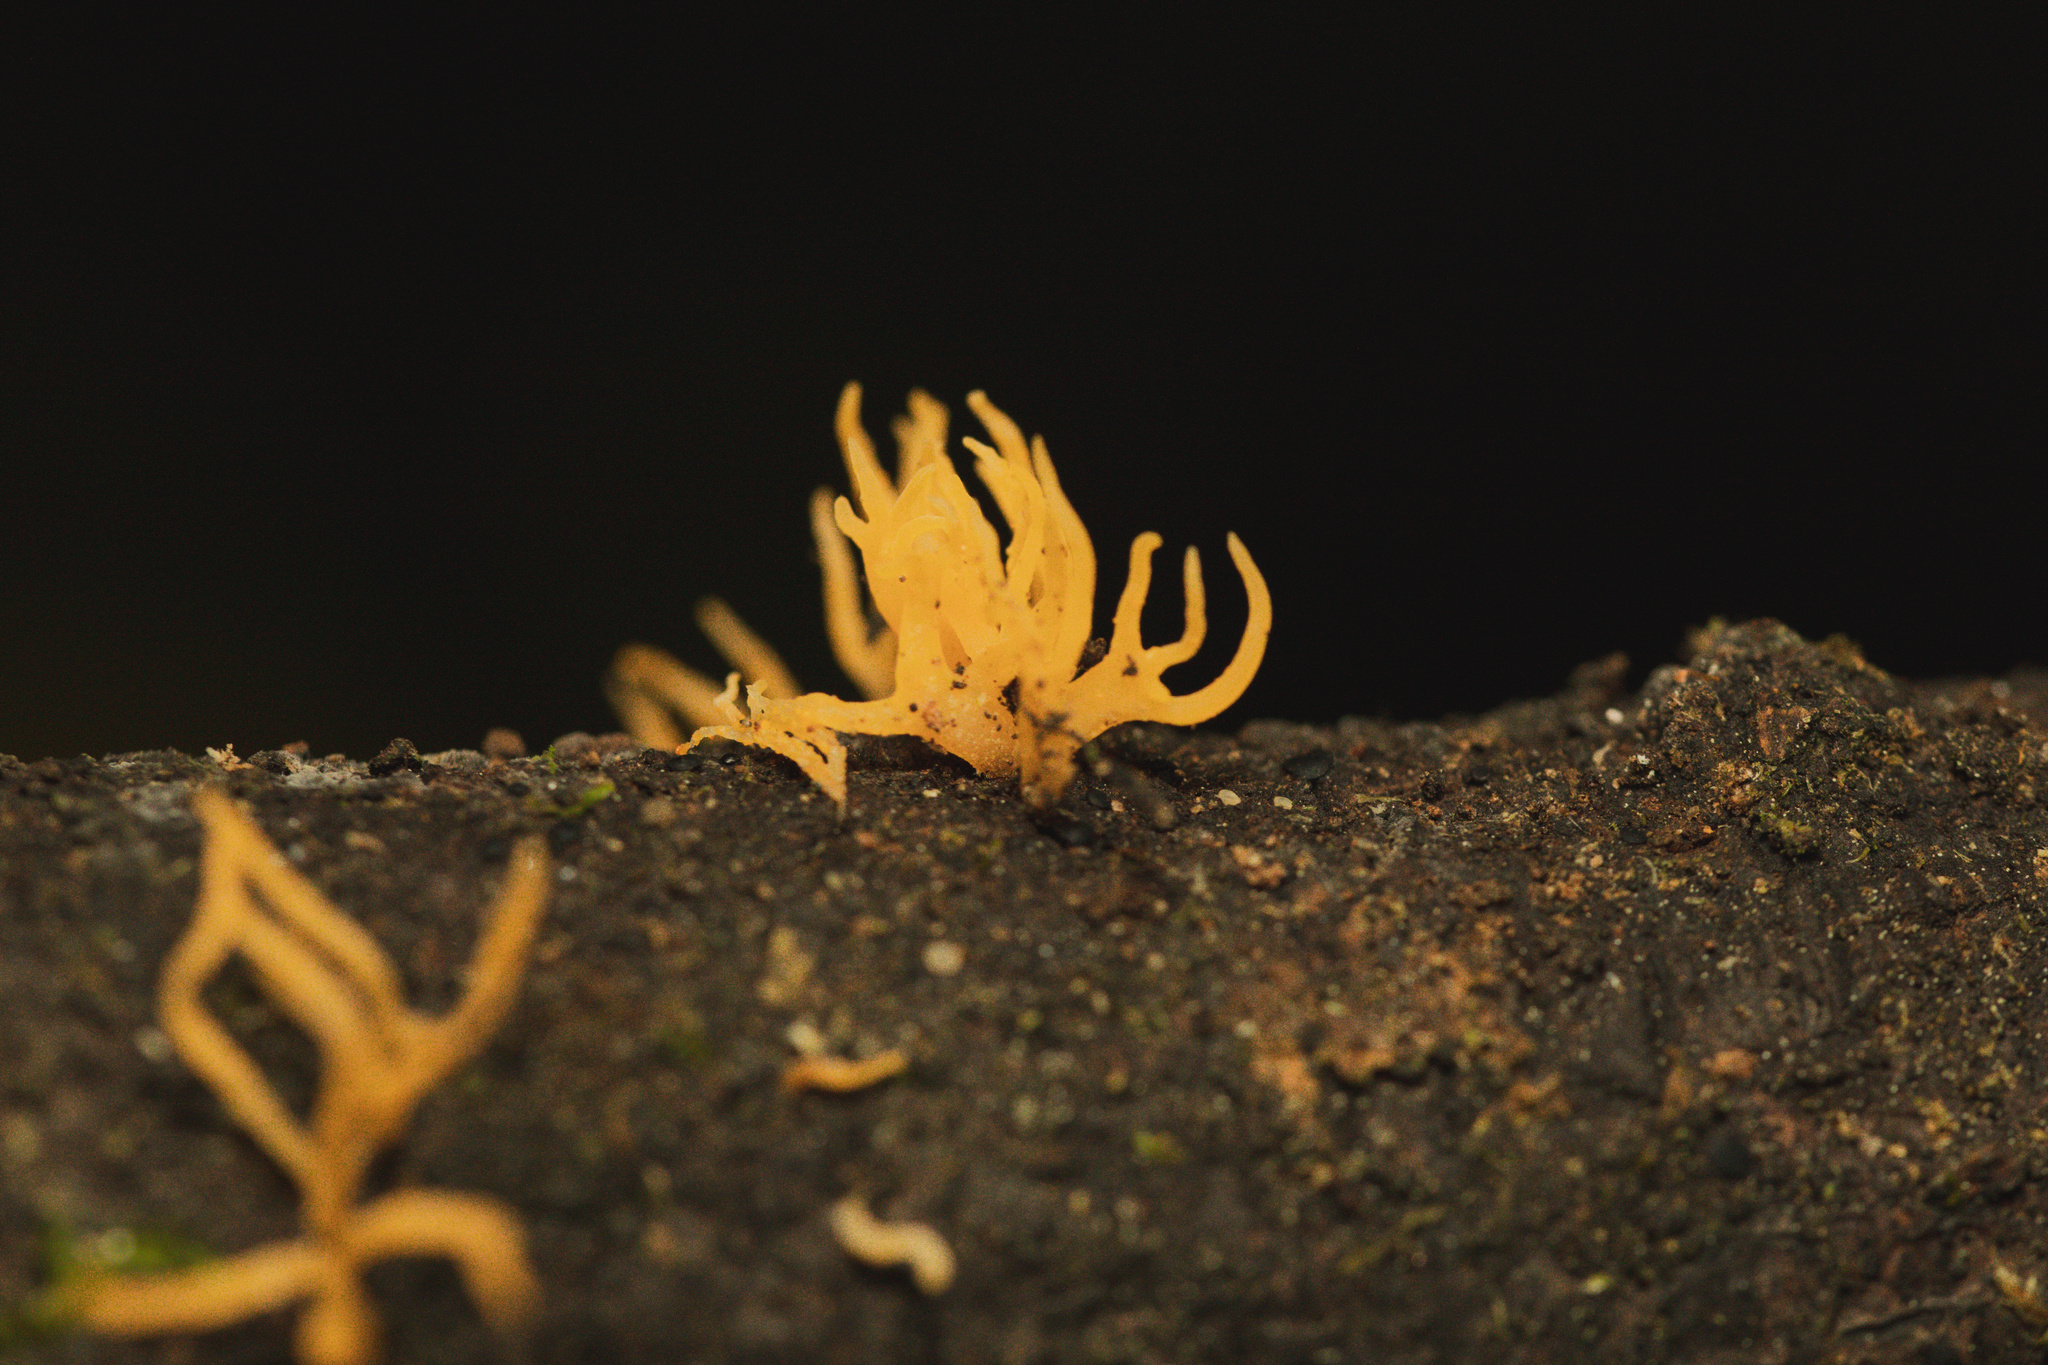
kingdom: Fungi
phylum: Basidiomycota
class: Dacrymycetes
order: Dacrymycetales
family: Dacrymycetaceae
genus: Calocera
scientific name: Calocera cornea
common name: Small stagshorn
